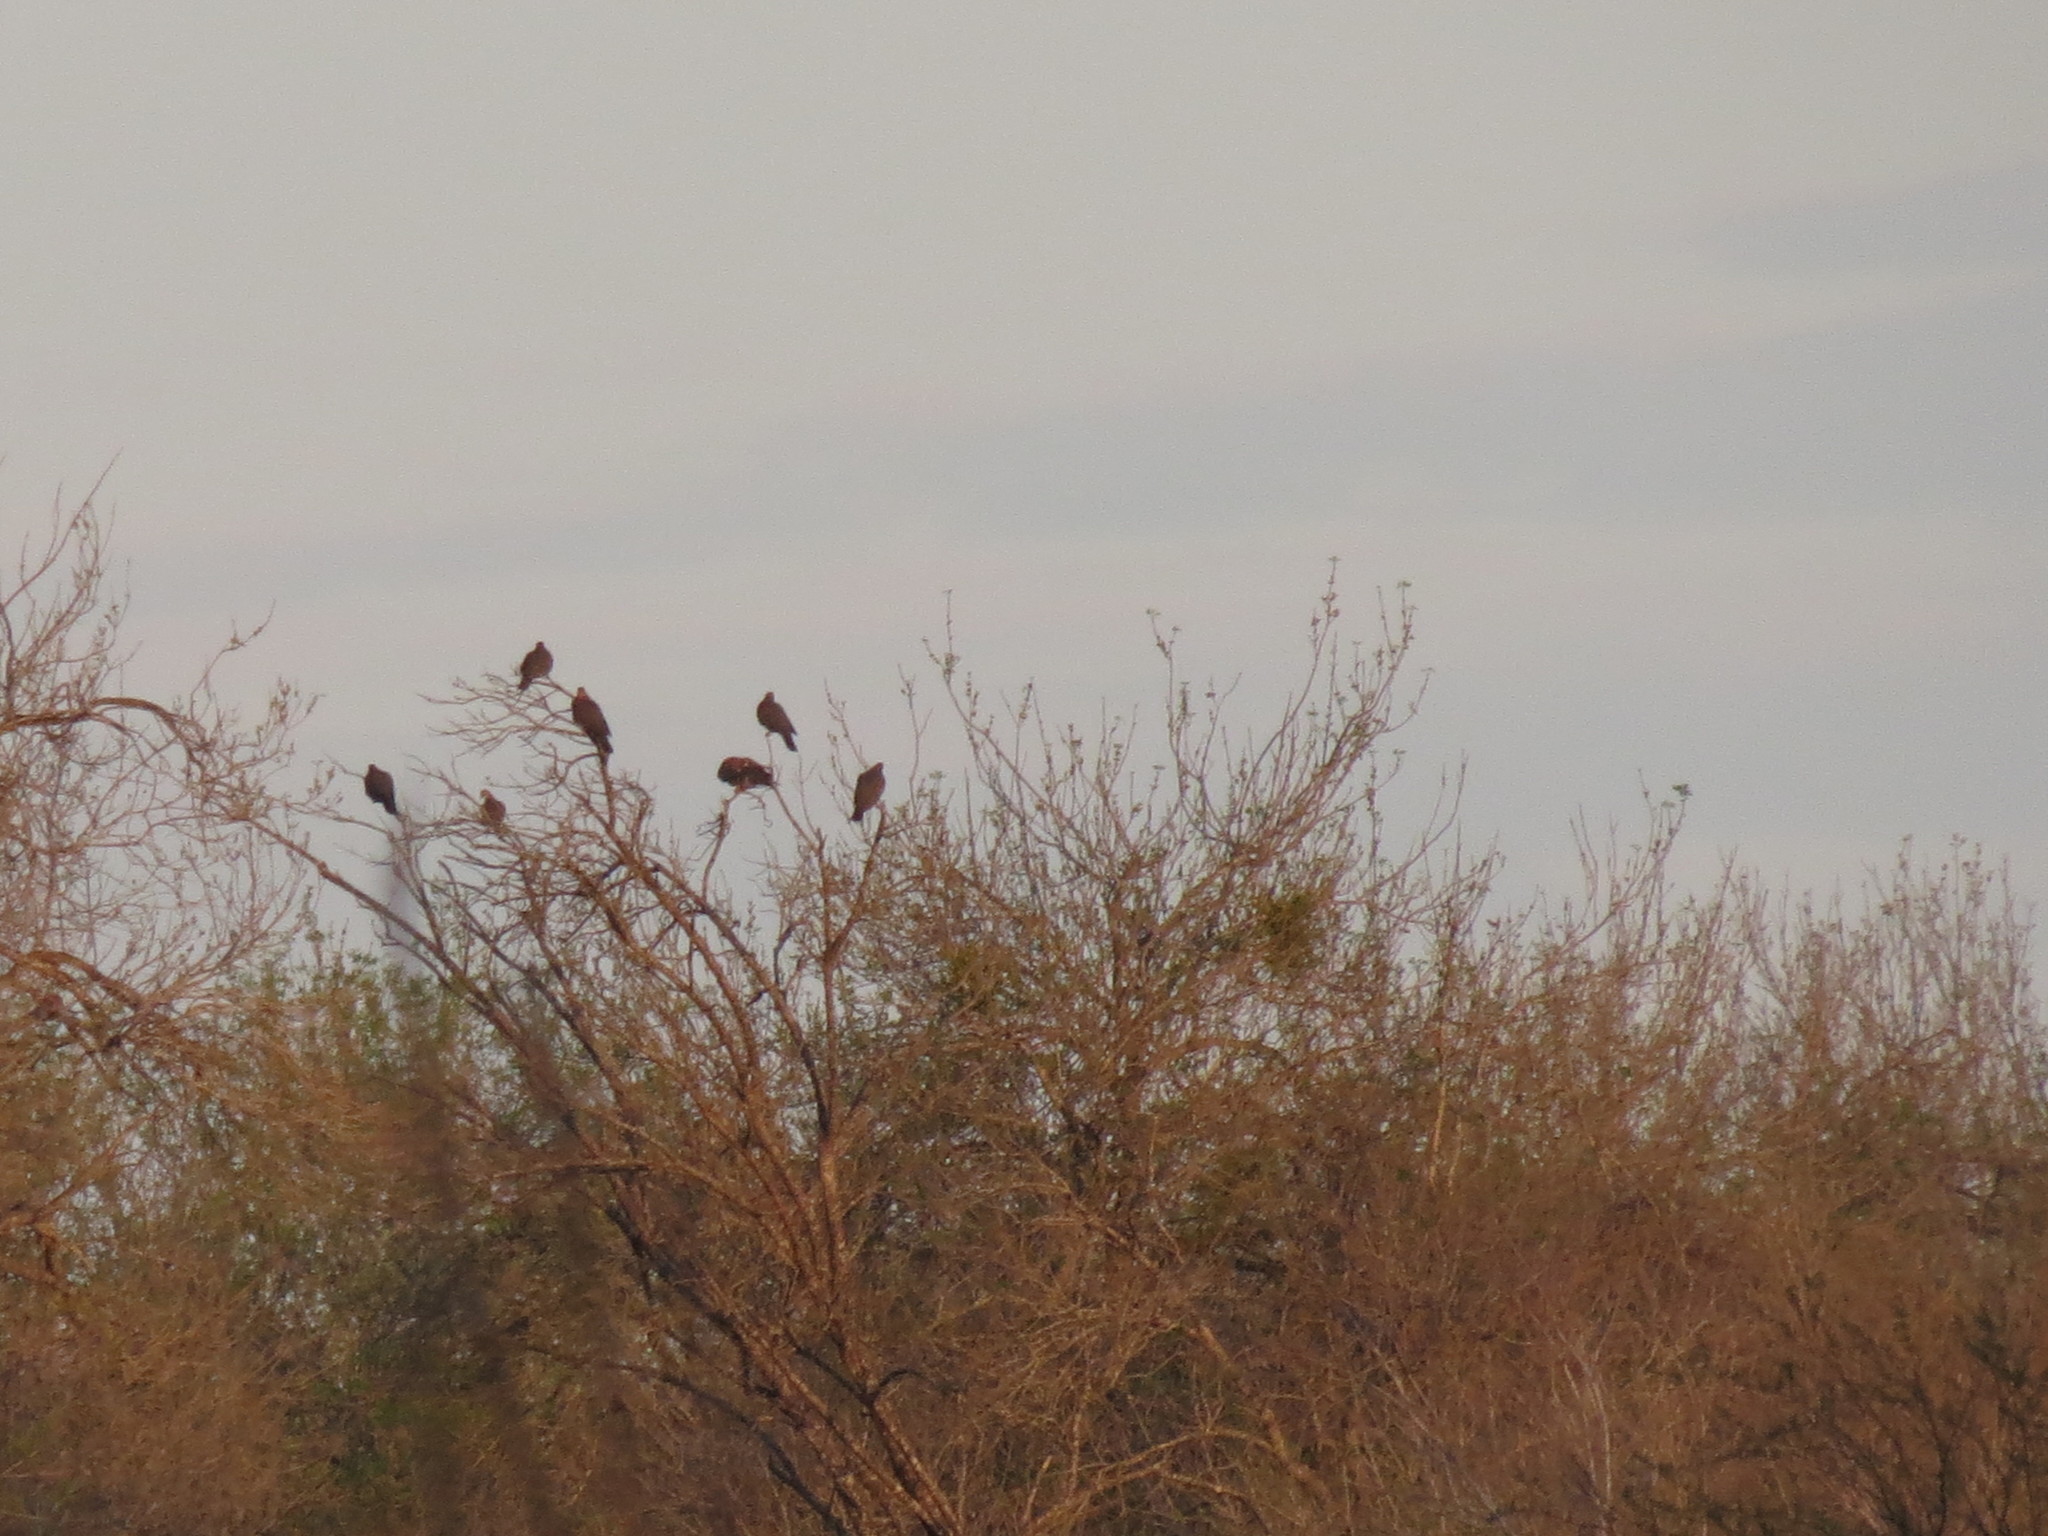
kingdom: Animalia
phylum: Chordata
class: Aves
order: Columbiformes
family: Columbidae
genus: Patagioenas
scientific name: Patagioenas flavirostris
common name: Red-billed pigeon
